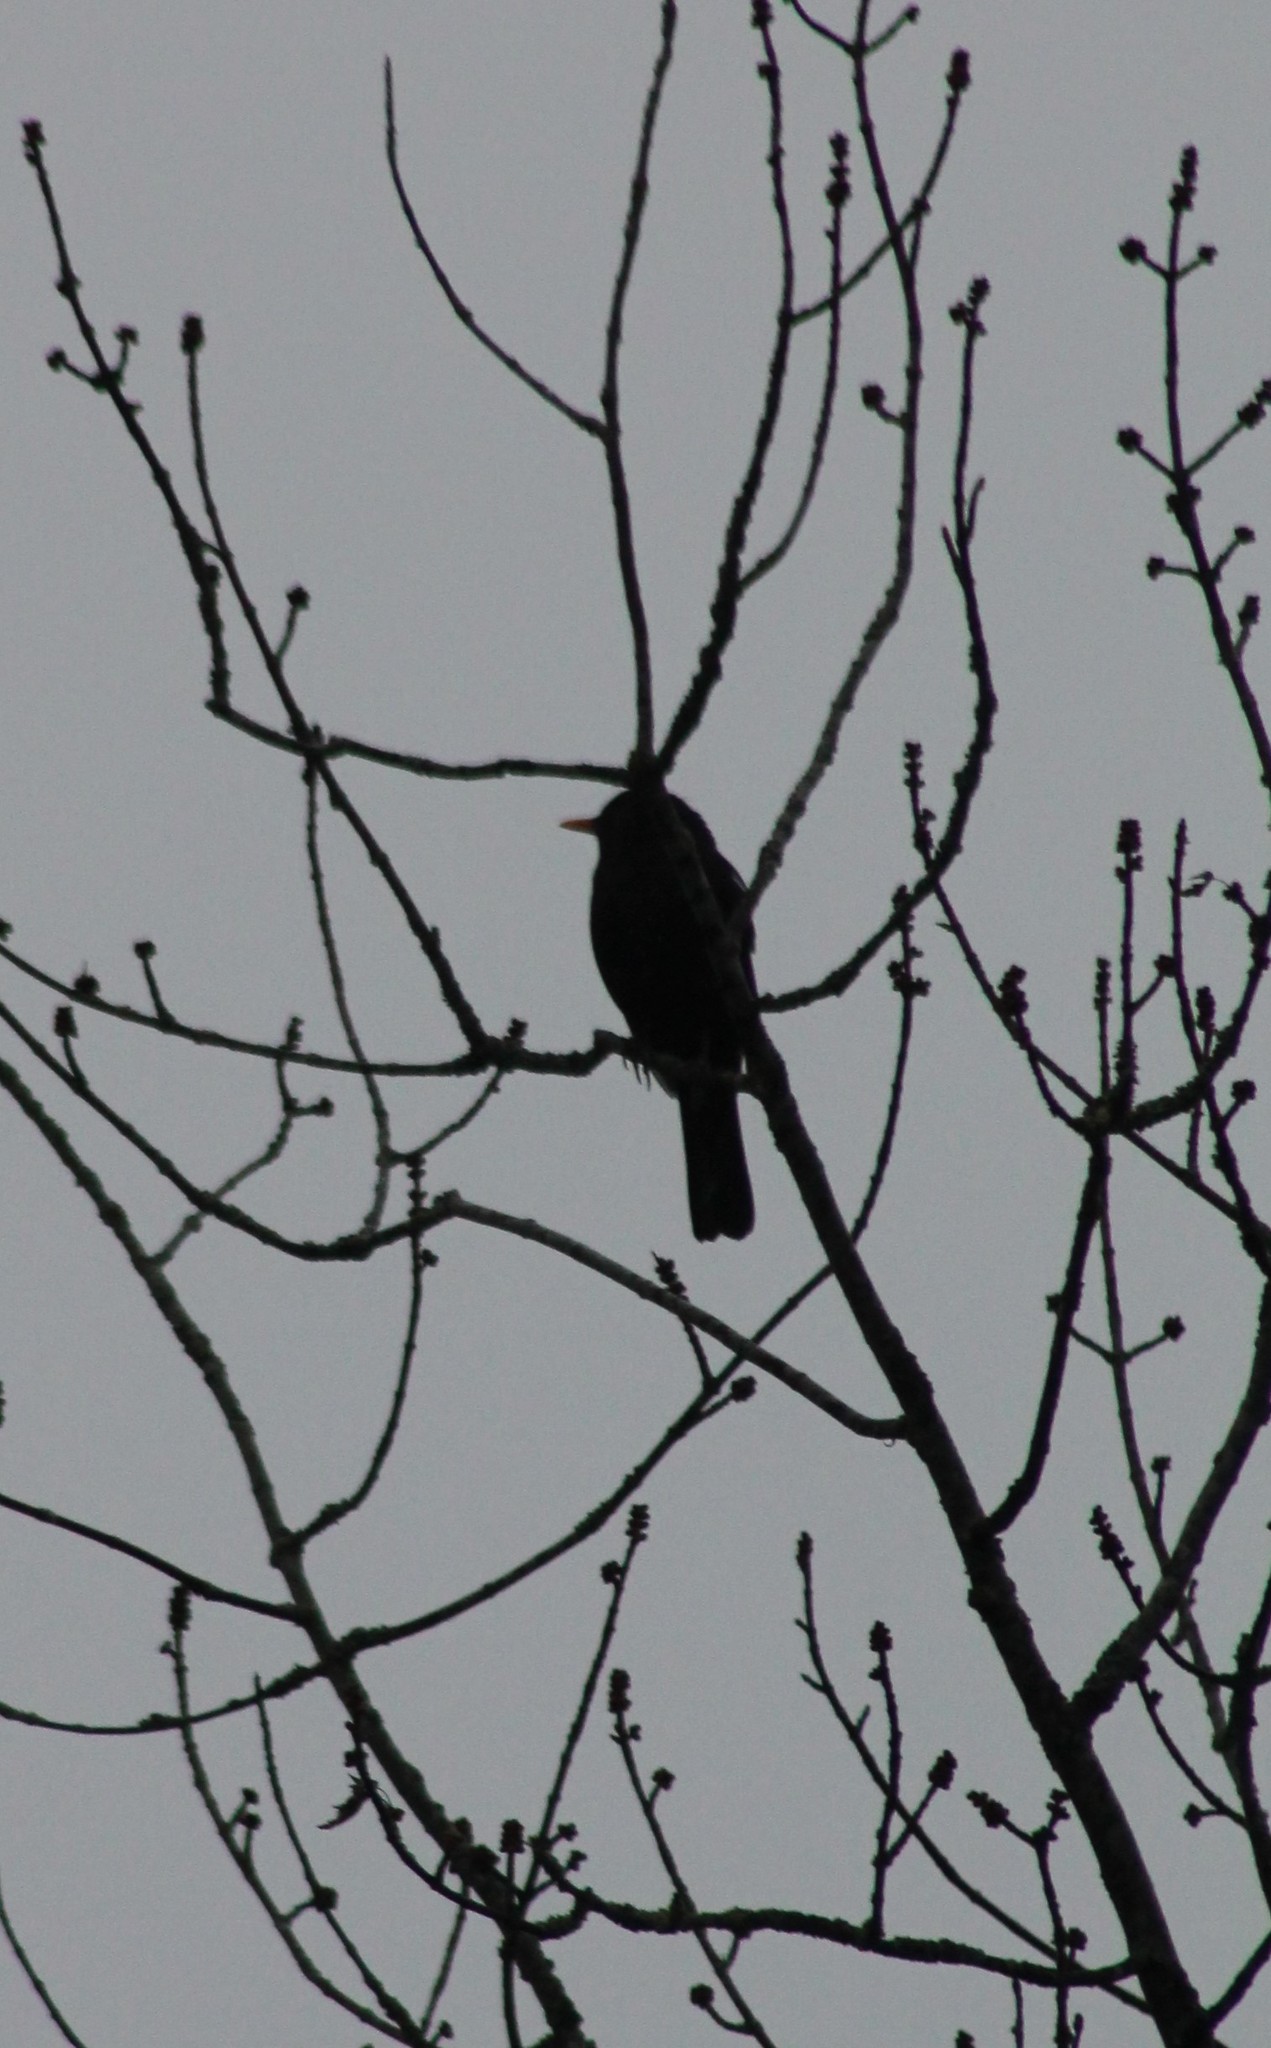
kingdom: Animalia
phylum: Chordata
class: Aves
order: Passeriformes
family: Turdidae
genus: Turdus
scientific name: Turdus merula
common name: Common blackbird
